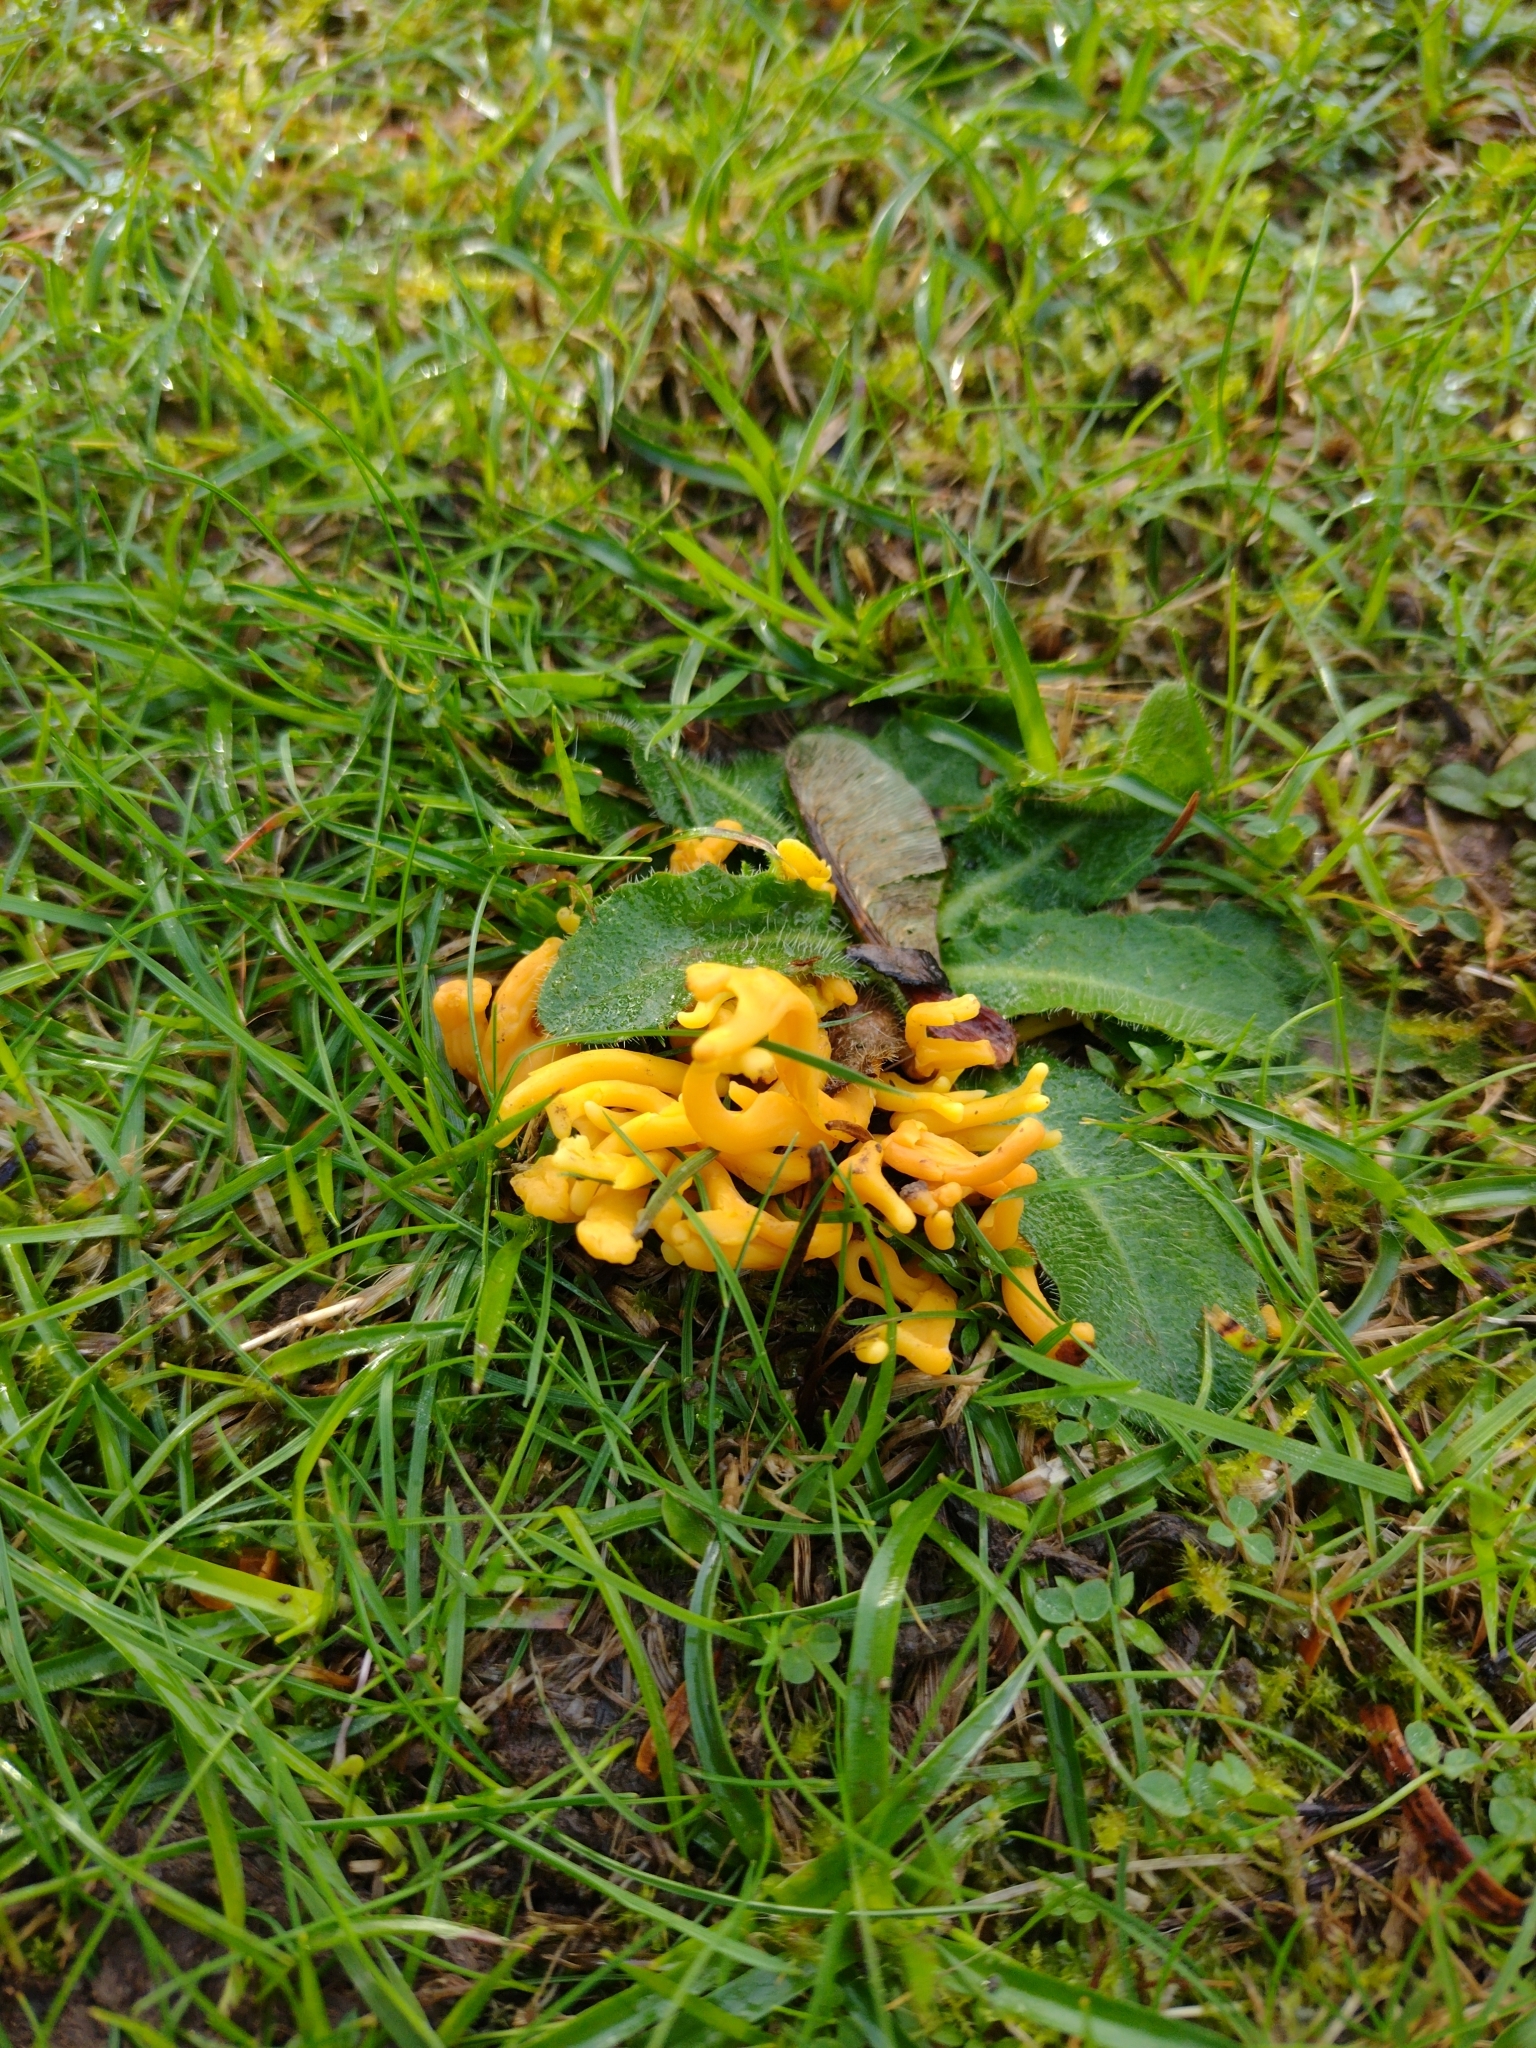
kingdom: Fungi
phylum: Basidiomycota
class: Agaricomycetes
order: Agaricales
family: Clavariaceae
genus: Clavulinopsis
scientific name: Clavulinopsis corniculata
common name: Meadow coral
